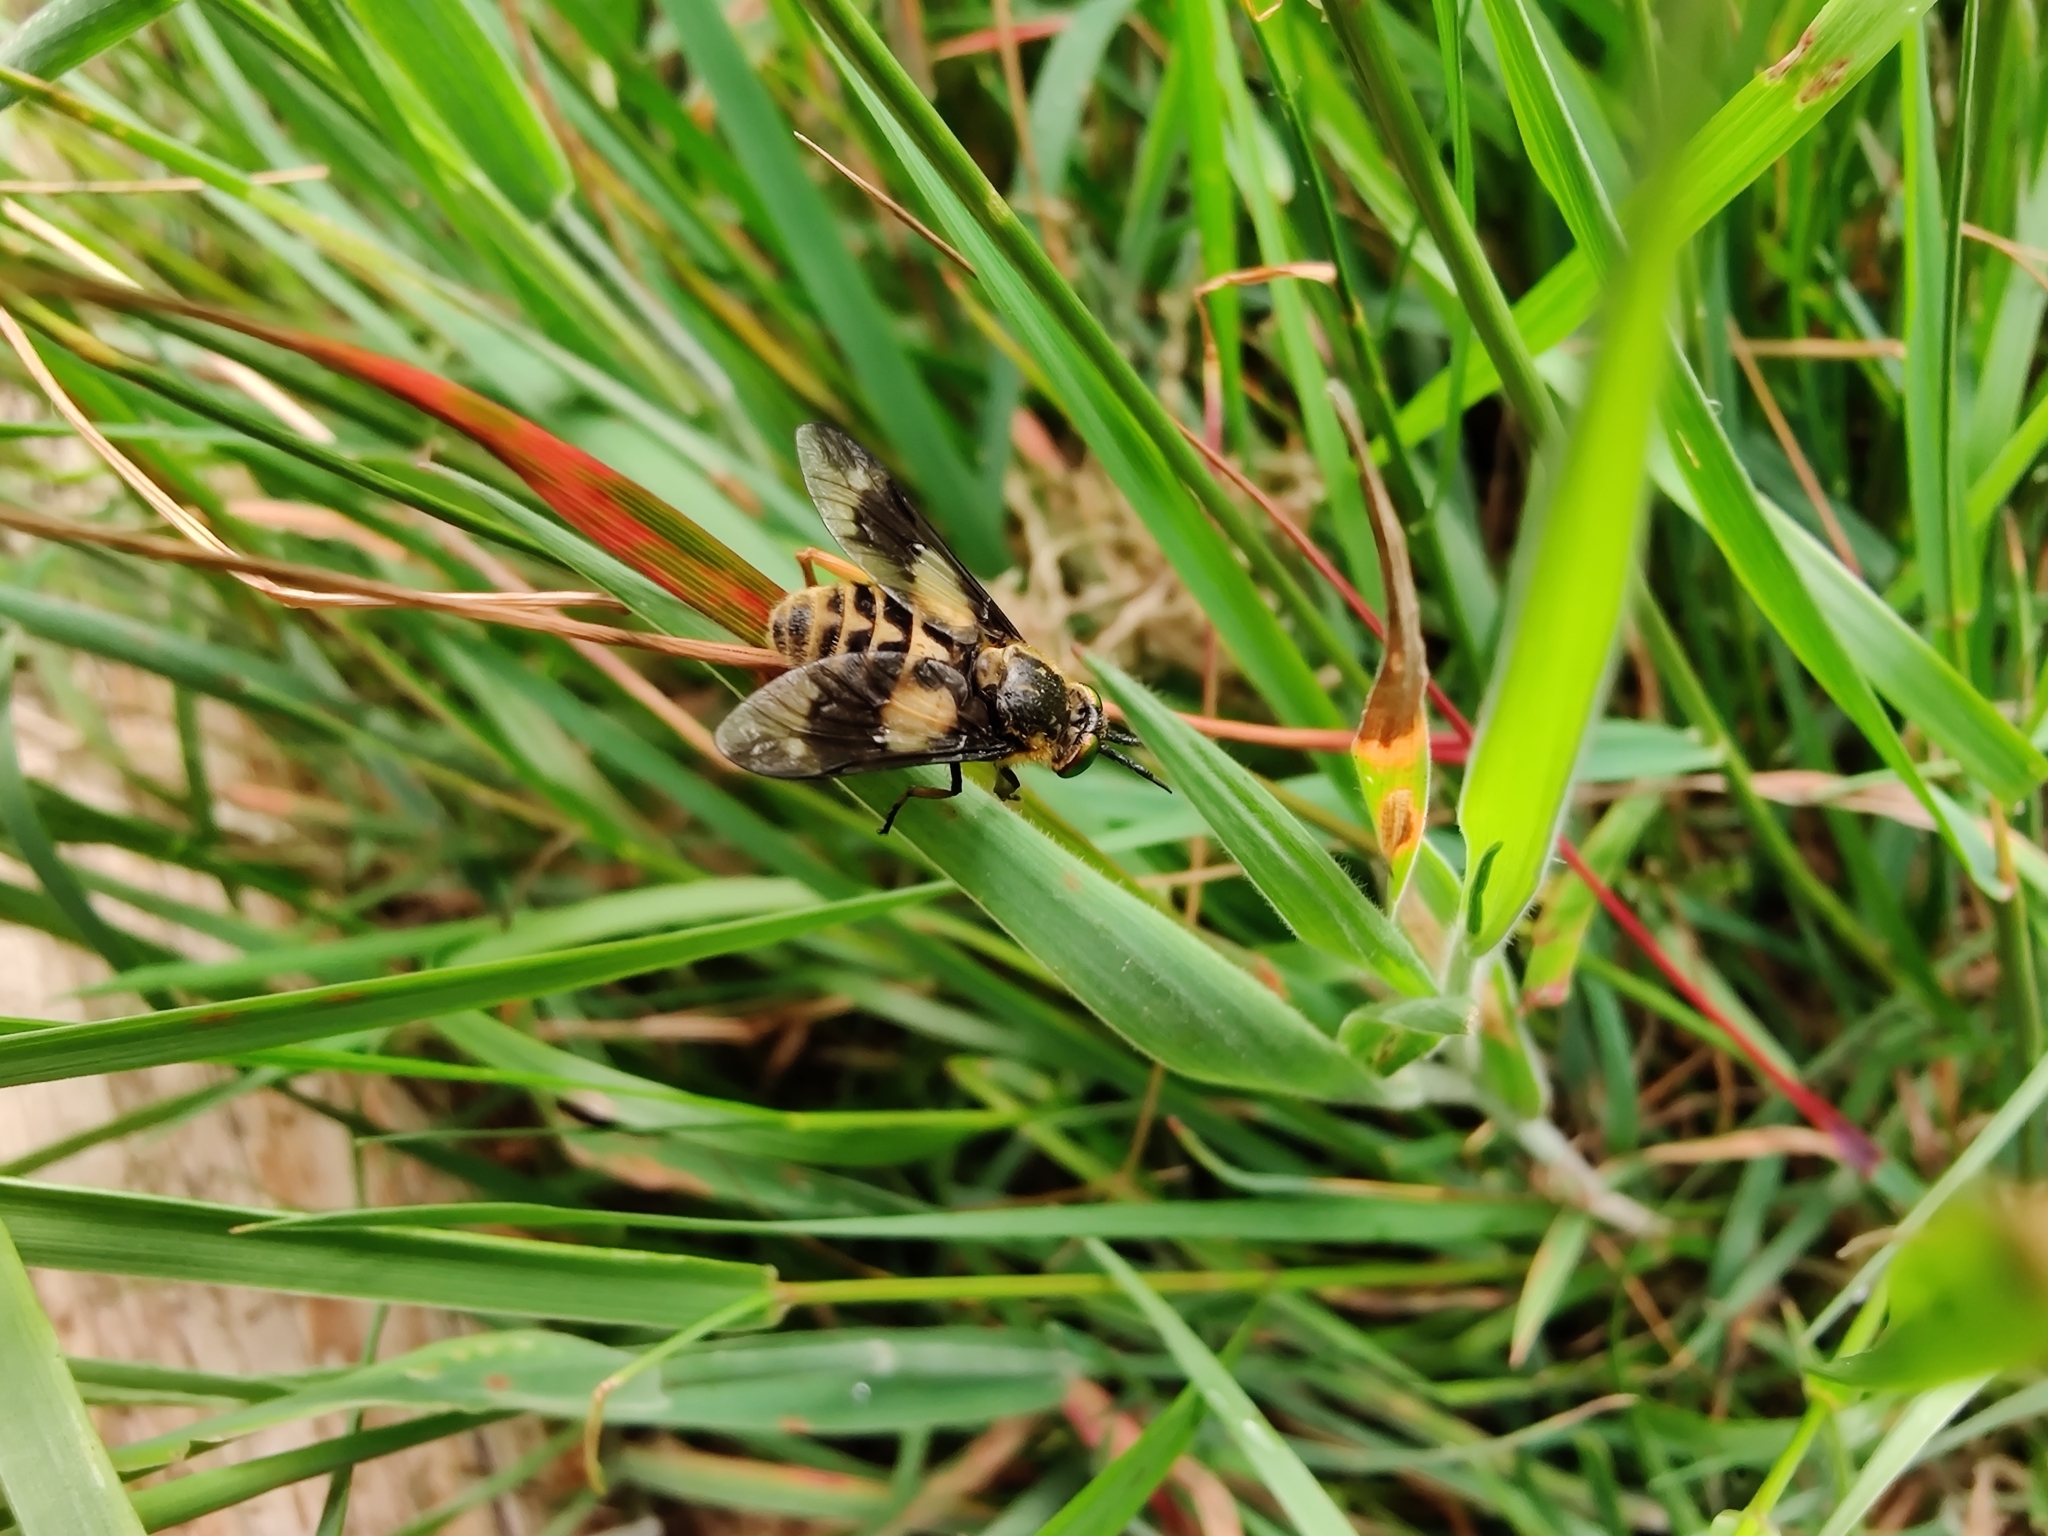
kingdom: Animalia
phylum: Arthropoda
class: Insecta
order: Diptera
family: Tabanidae
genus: Chrysops
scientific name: Chrysops relictus
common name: Twin-lobed deerfly
